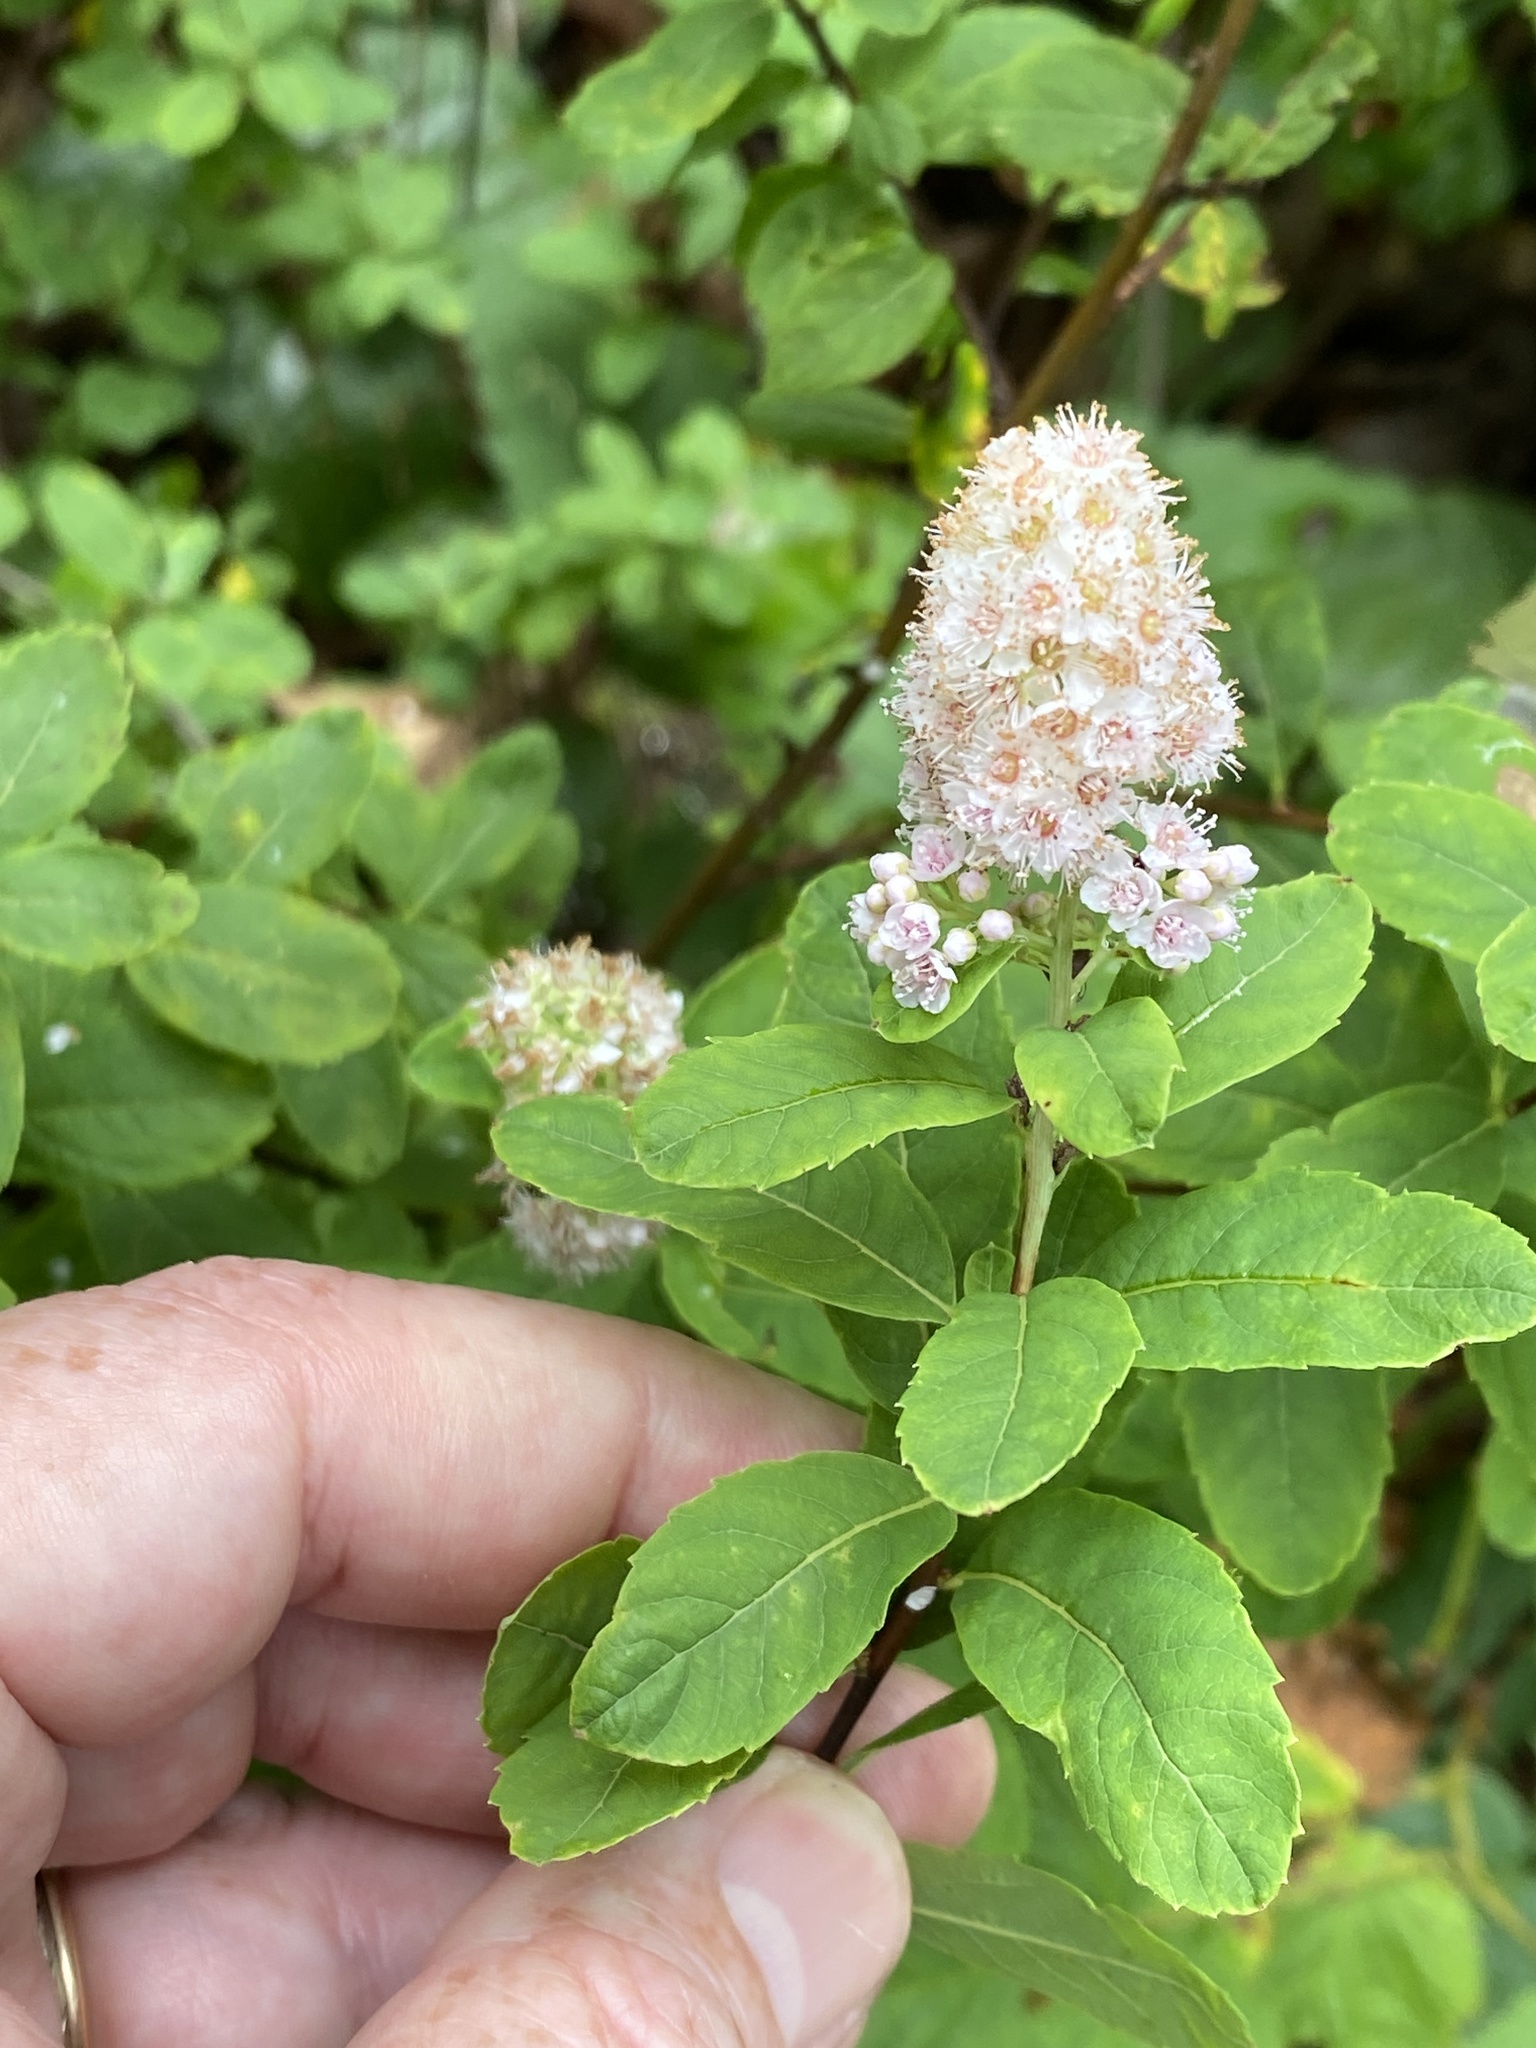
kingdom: Plantae
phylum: Tracheophyta
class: Magnoliopsida
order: Rosales
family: Rosaceae
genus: Spiraea
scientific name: Spiraea alba
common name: Pale bridewort
